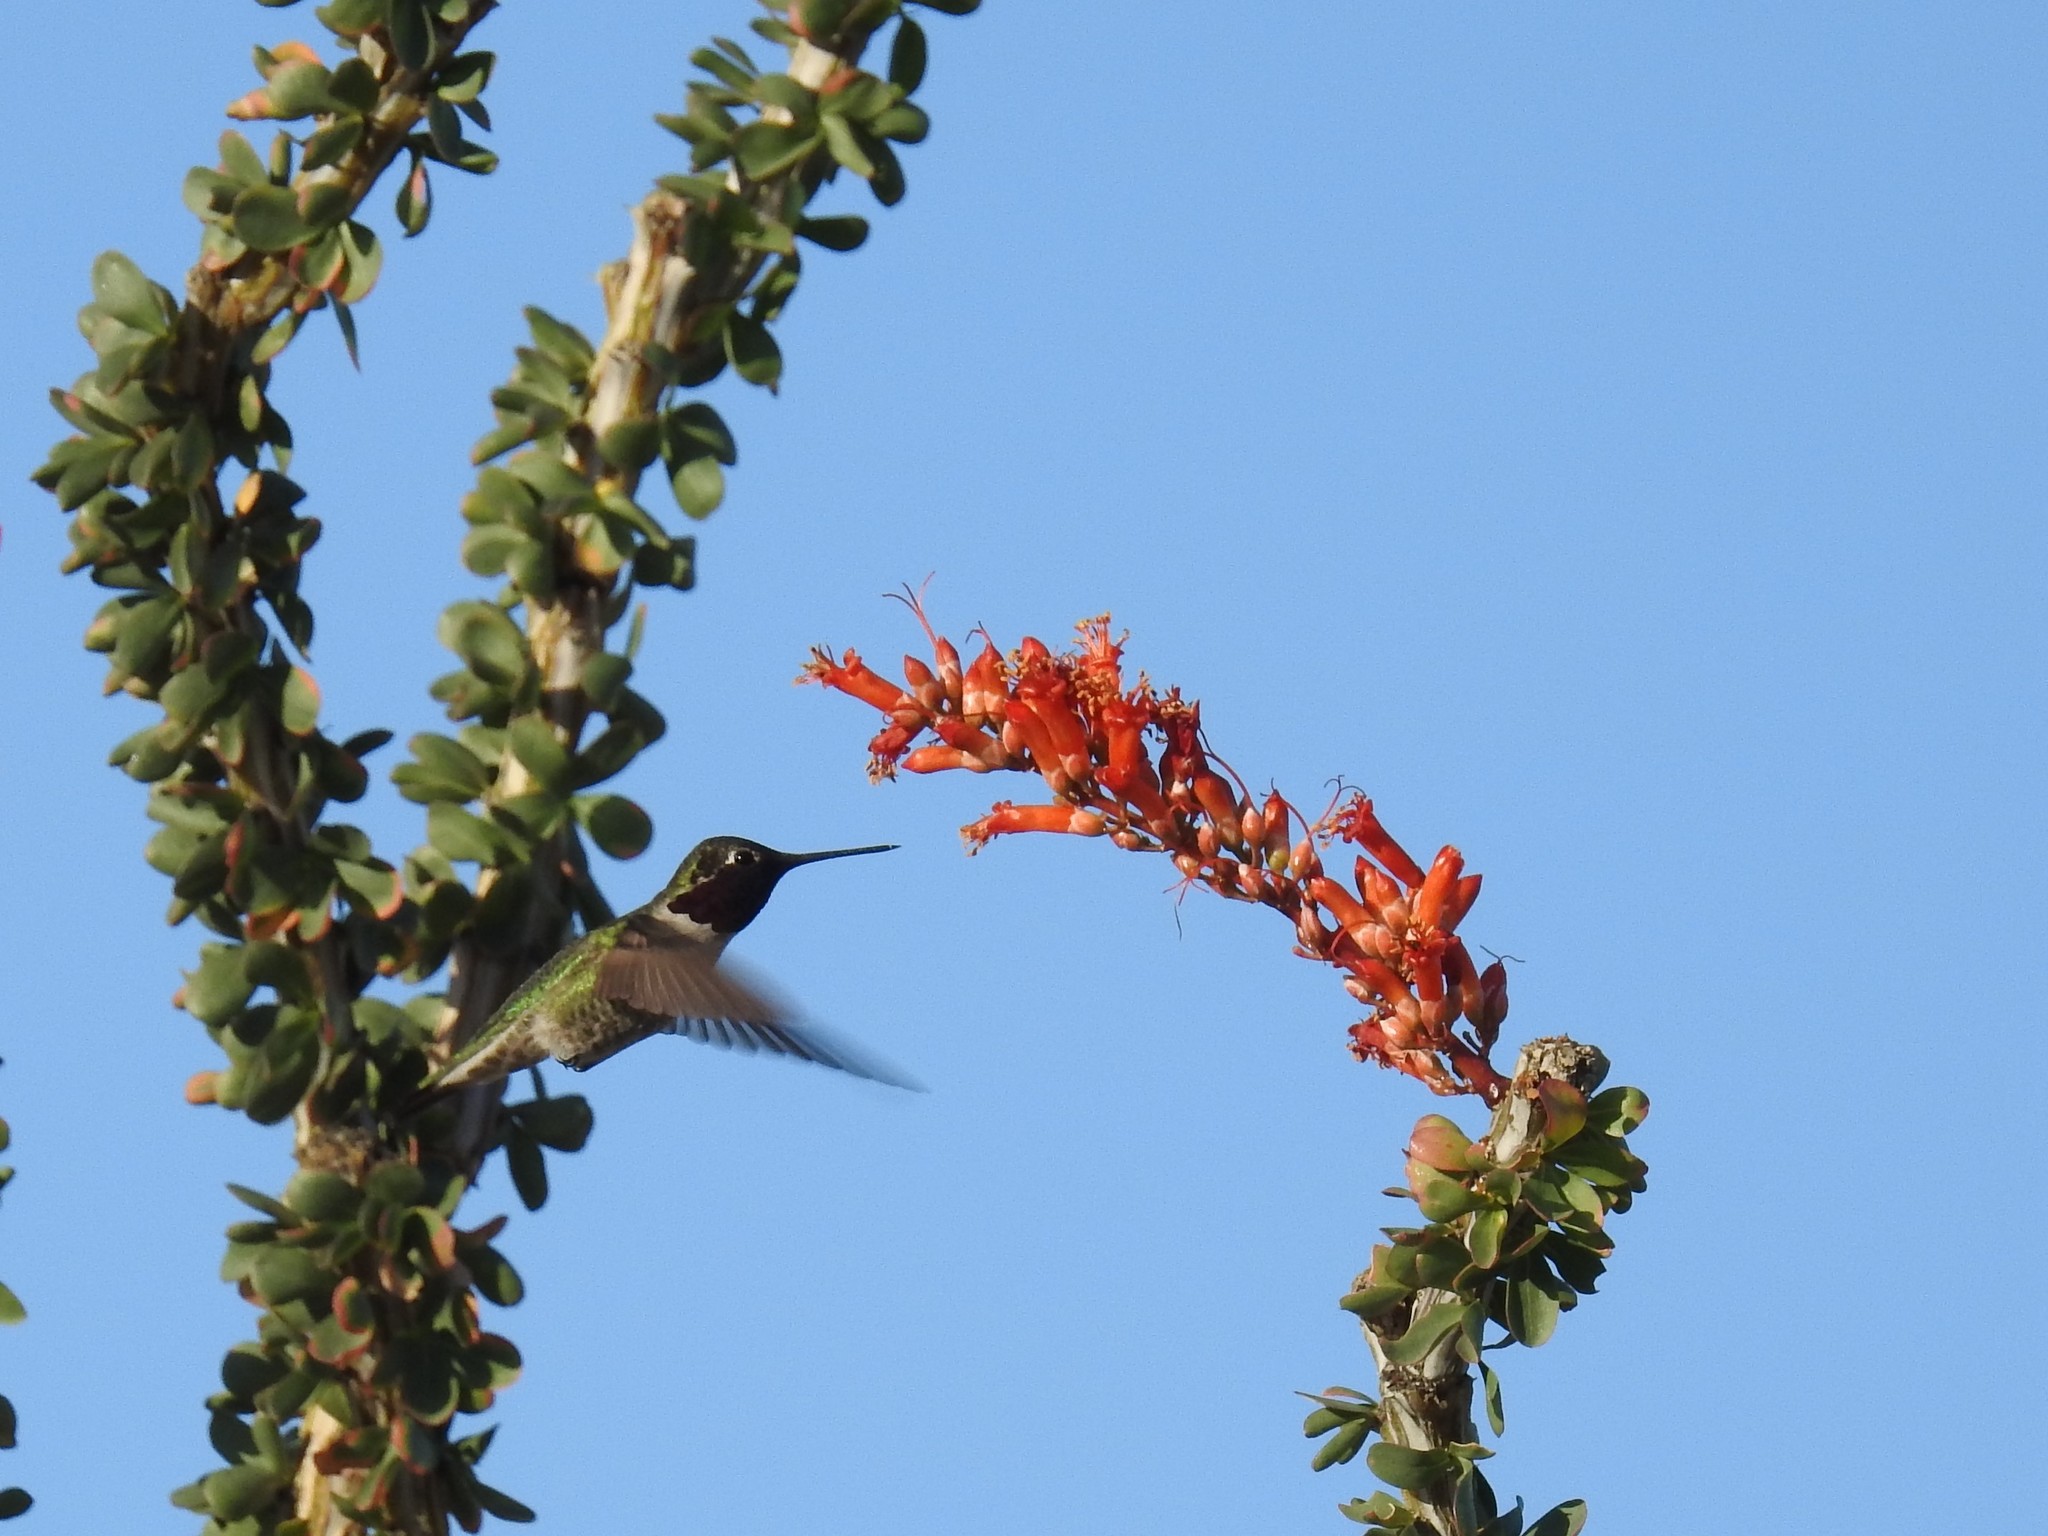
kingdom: Animalia
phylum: Chordata
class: Aves
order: Apodiformes
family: Trochilidae
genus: Calypte
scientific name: Calypte anna
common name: Anna's hummingbird
